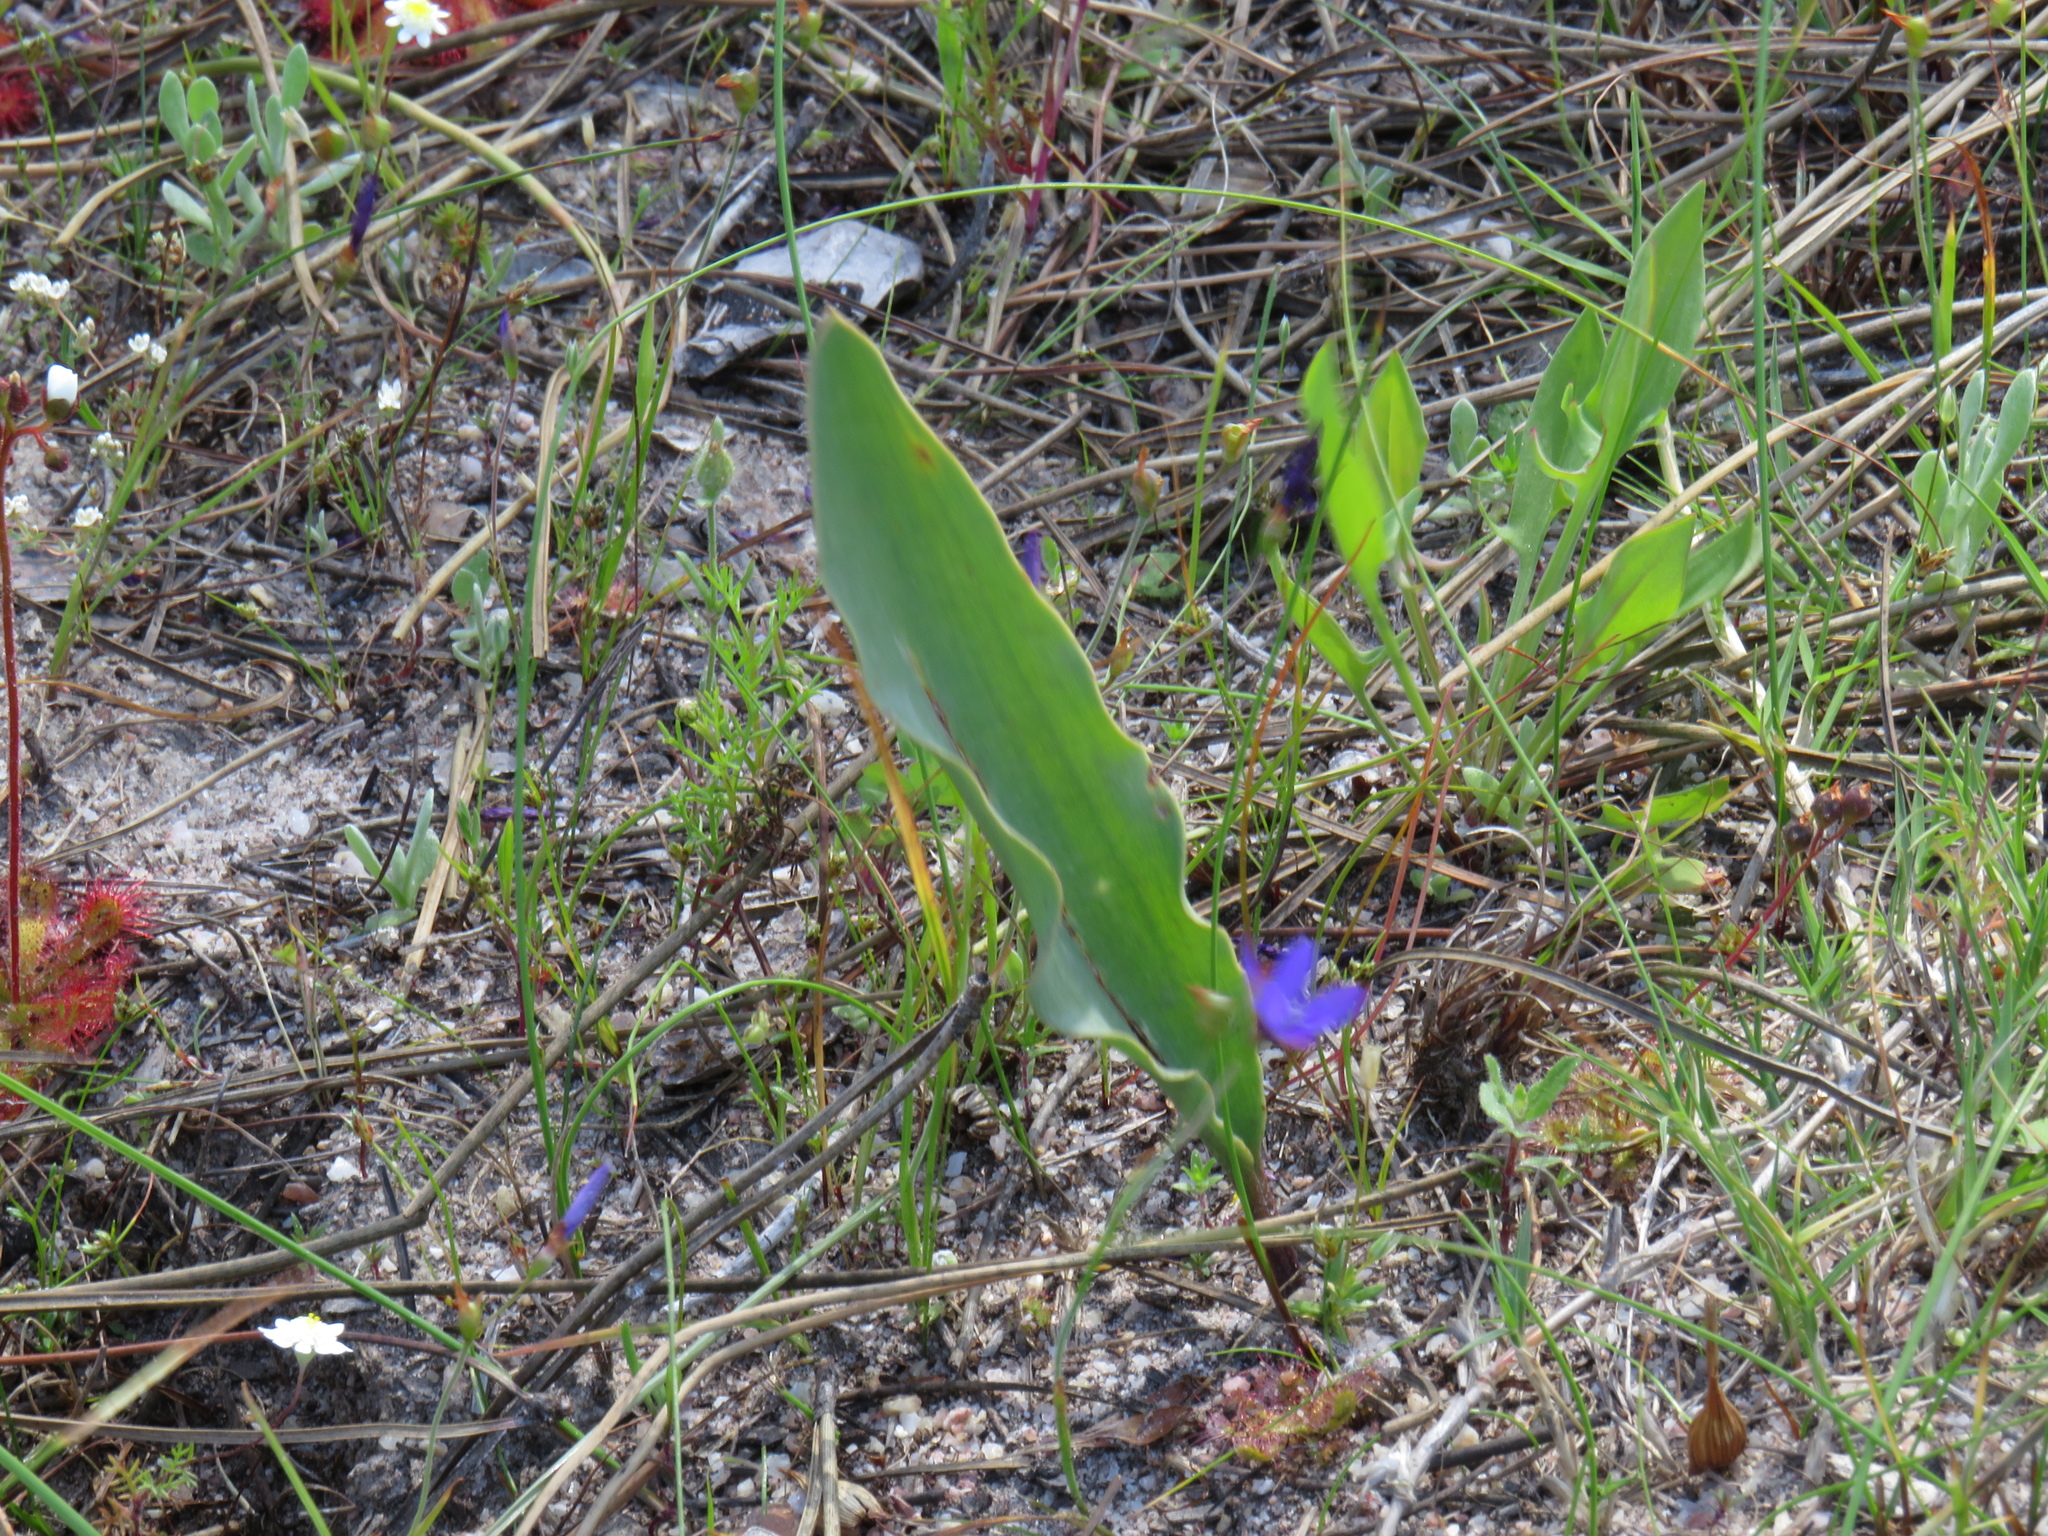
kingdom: Plantae
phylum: Tracheophyta
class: Liliopsida
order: Asparagales
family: Asparagaceae
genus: Eriospermum
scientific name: Eriospermum lanceifolium
